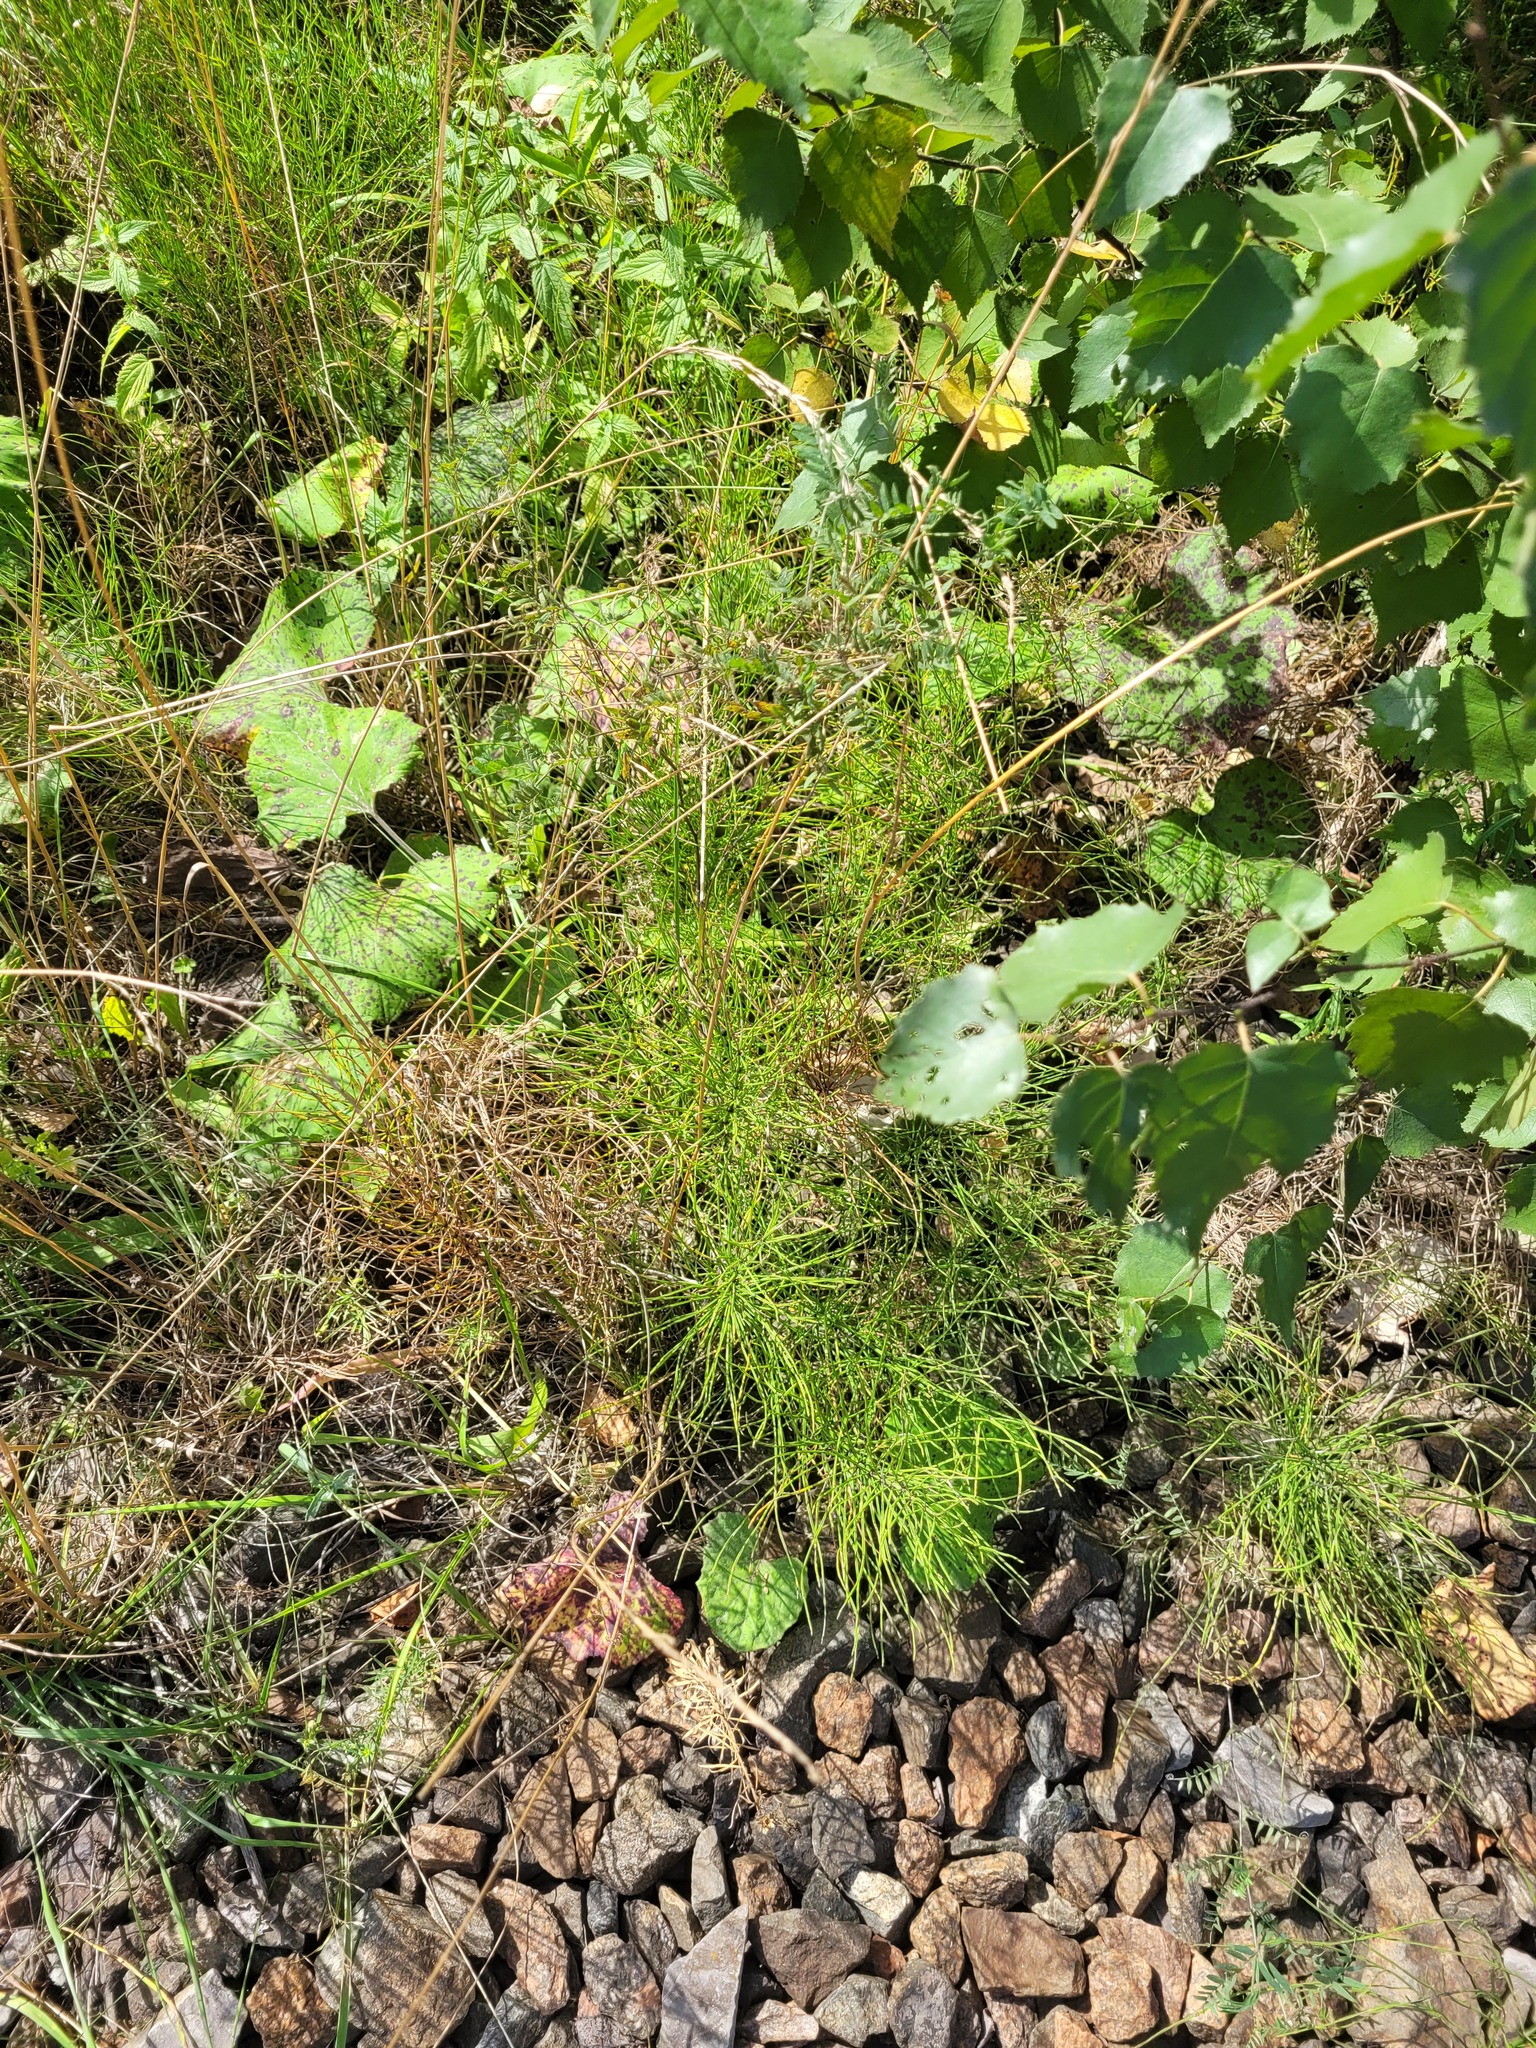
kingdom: Plantae
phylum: Tracheophyta
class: Polypodiopsida
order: Equisetales
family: Equisetaceae
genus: Equisetum
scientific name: Equisetum arvense
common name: Field horsetail
